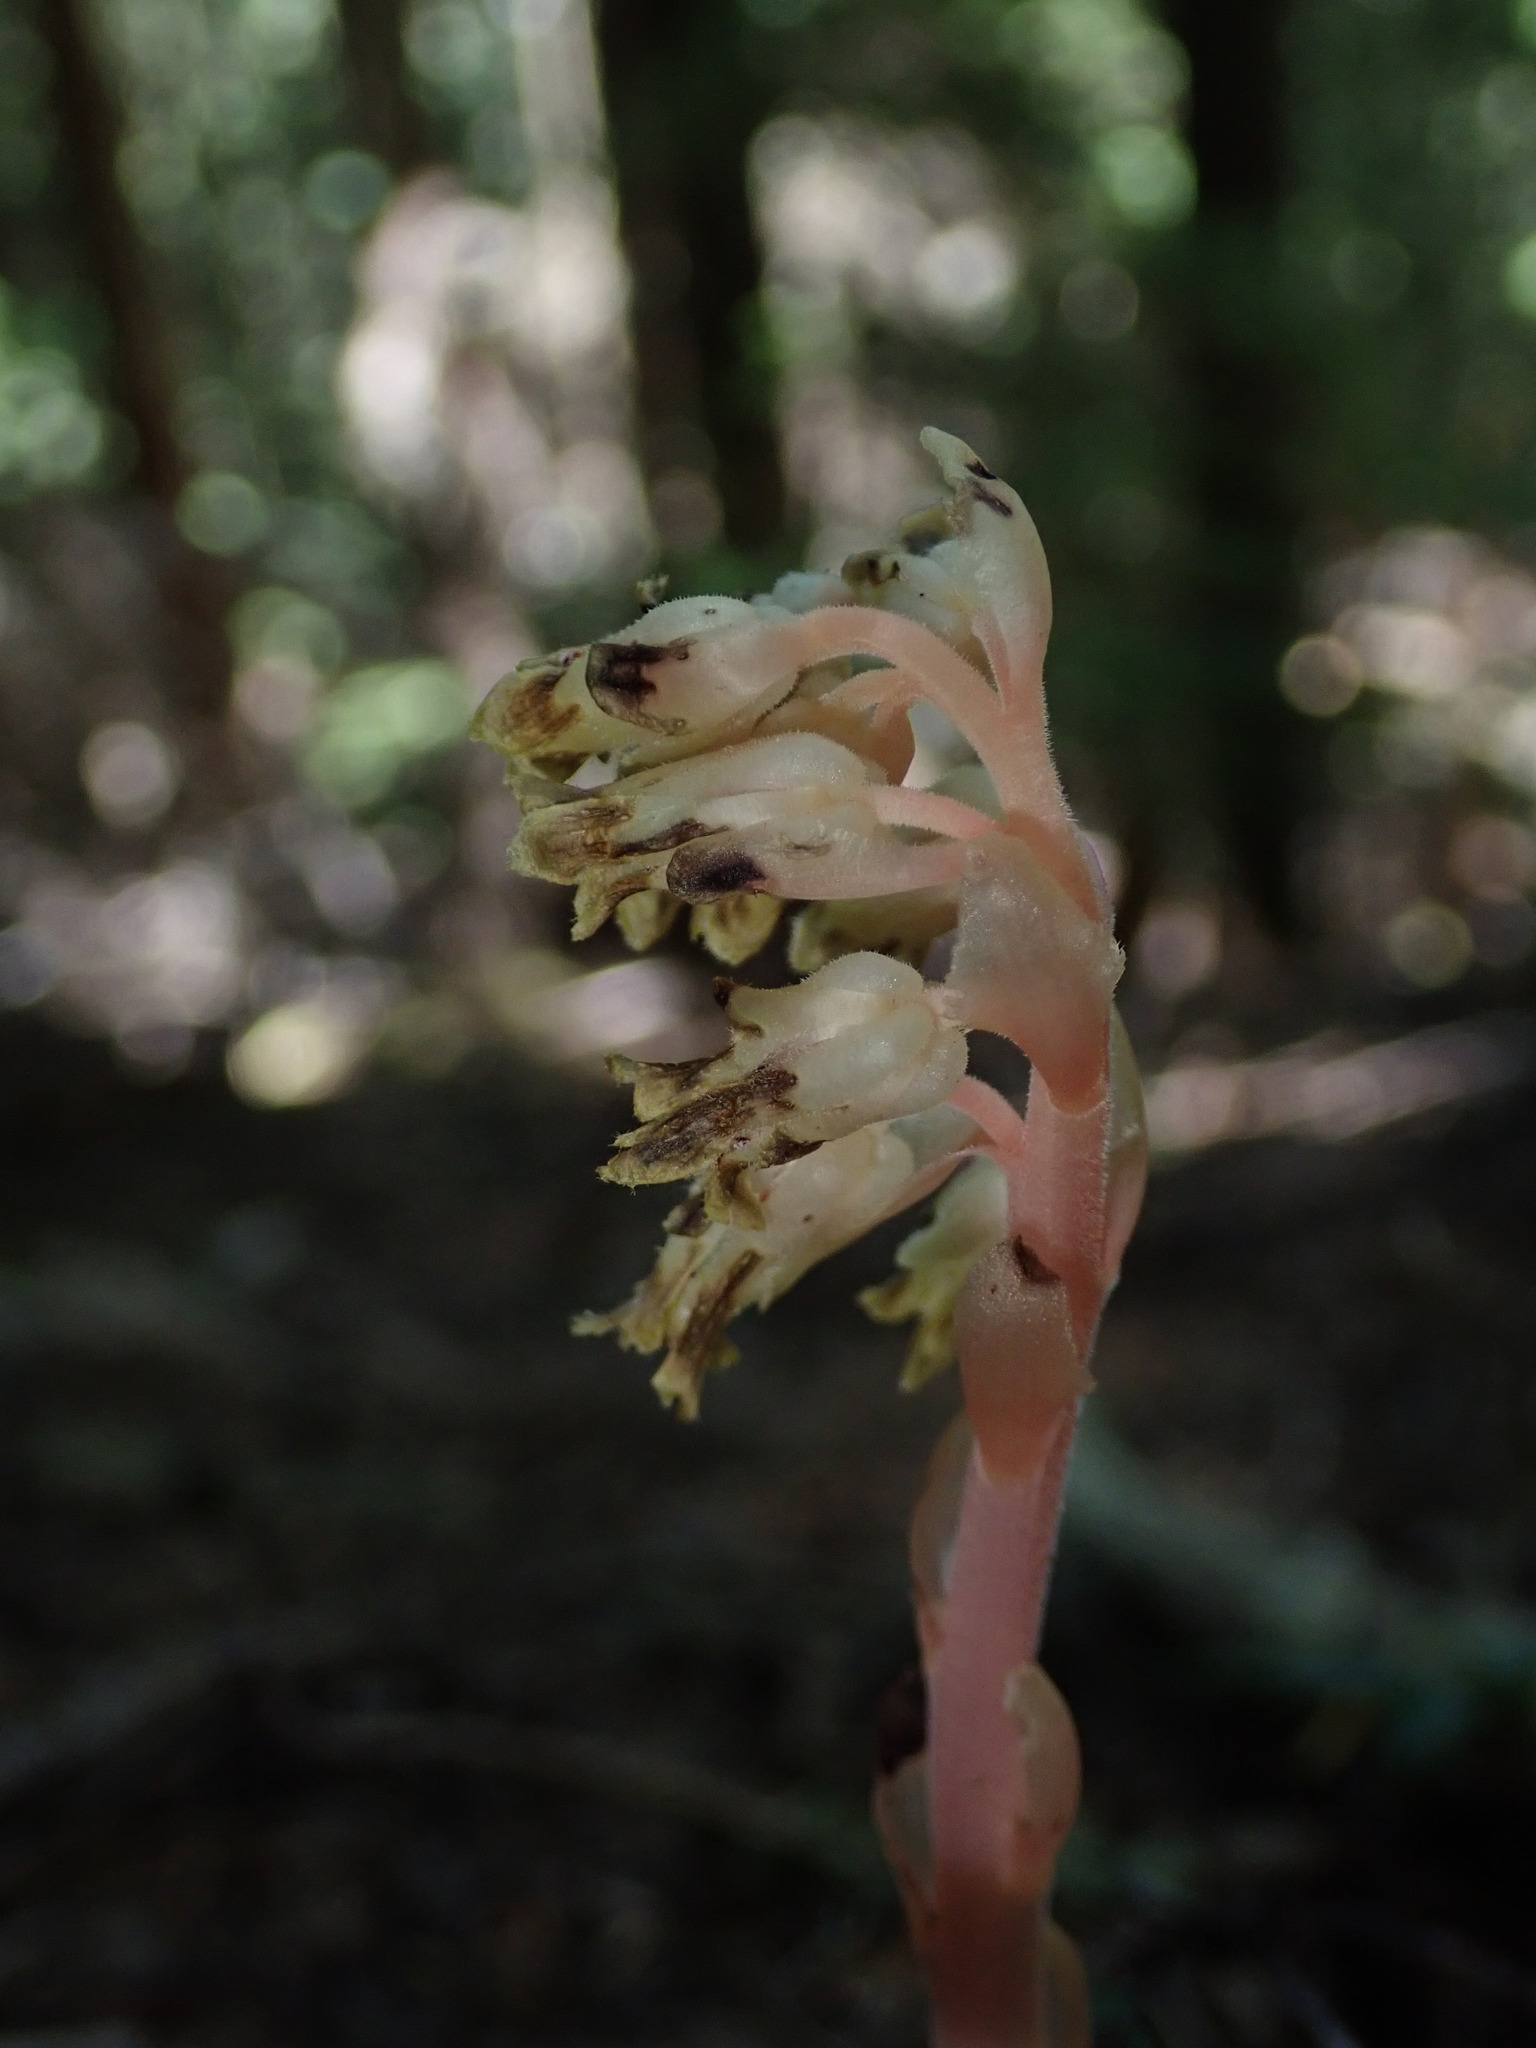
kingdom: Plantae
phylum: Tracheophyta
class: Magnoliopsida
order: Ericales
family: Ericaceae
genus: Hypopitys
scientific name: Hypopitys monotropa
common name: Yellow bird's-nest
